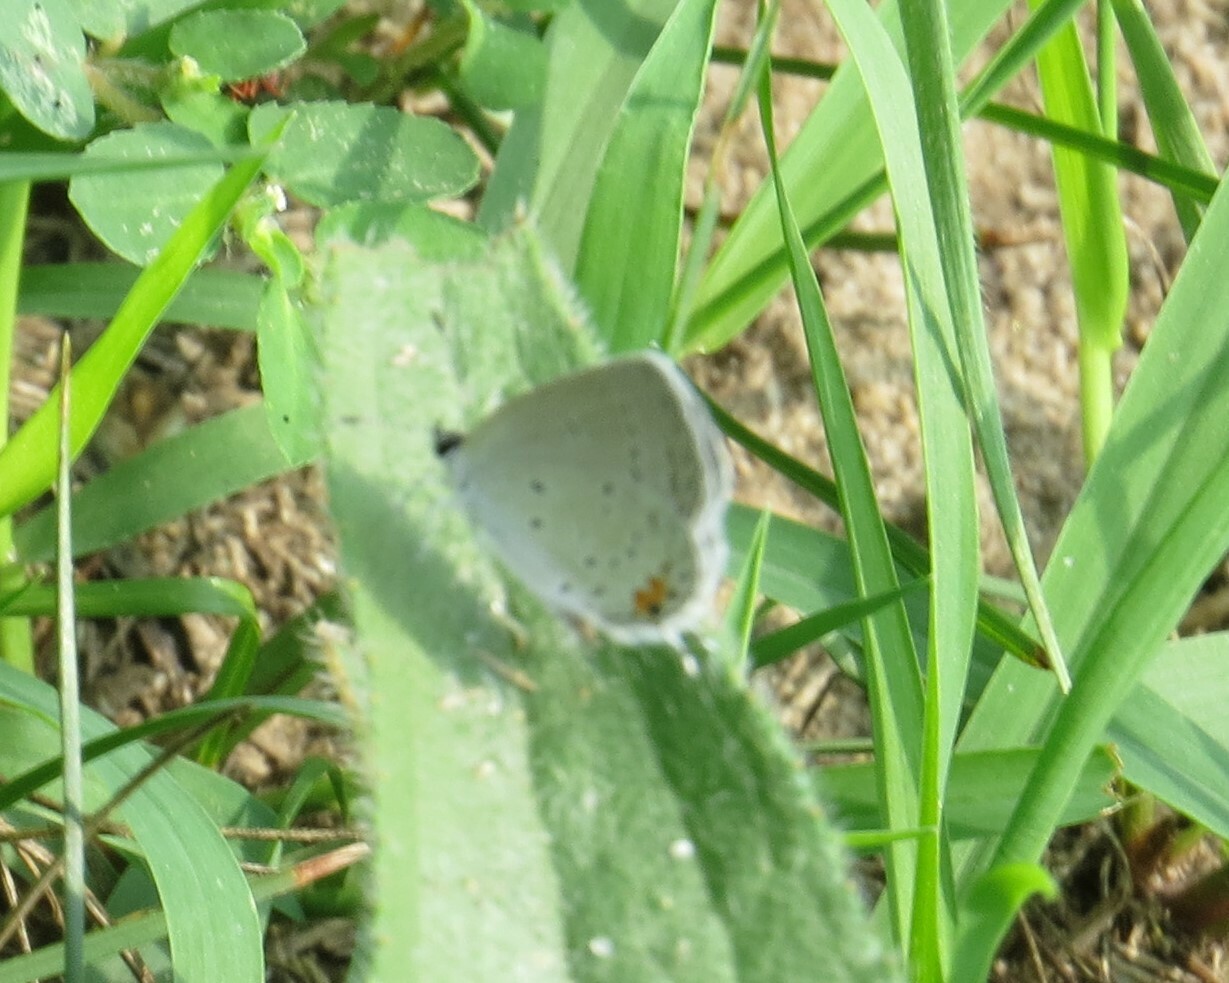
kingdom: Animalia
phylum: Arthropoda
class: Insecta
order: Lepidoptera
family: Lycaenidae
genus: Elkalyce
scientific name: Elkalyce comyntas
